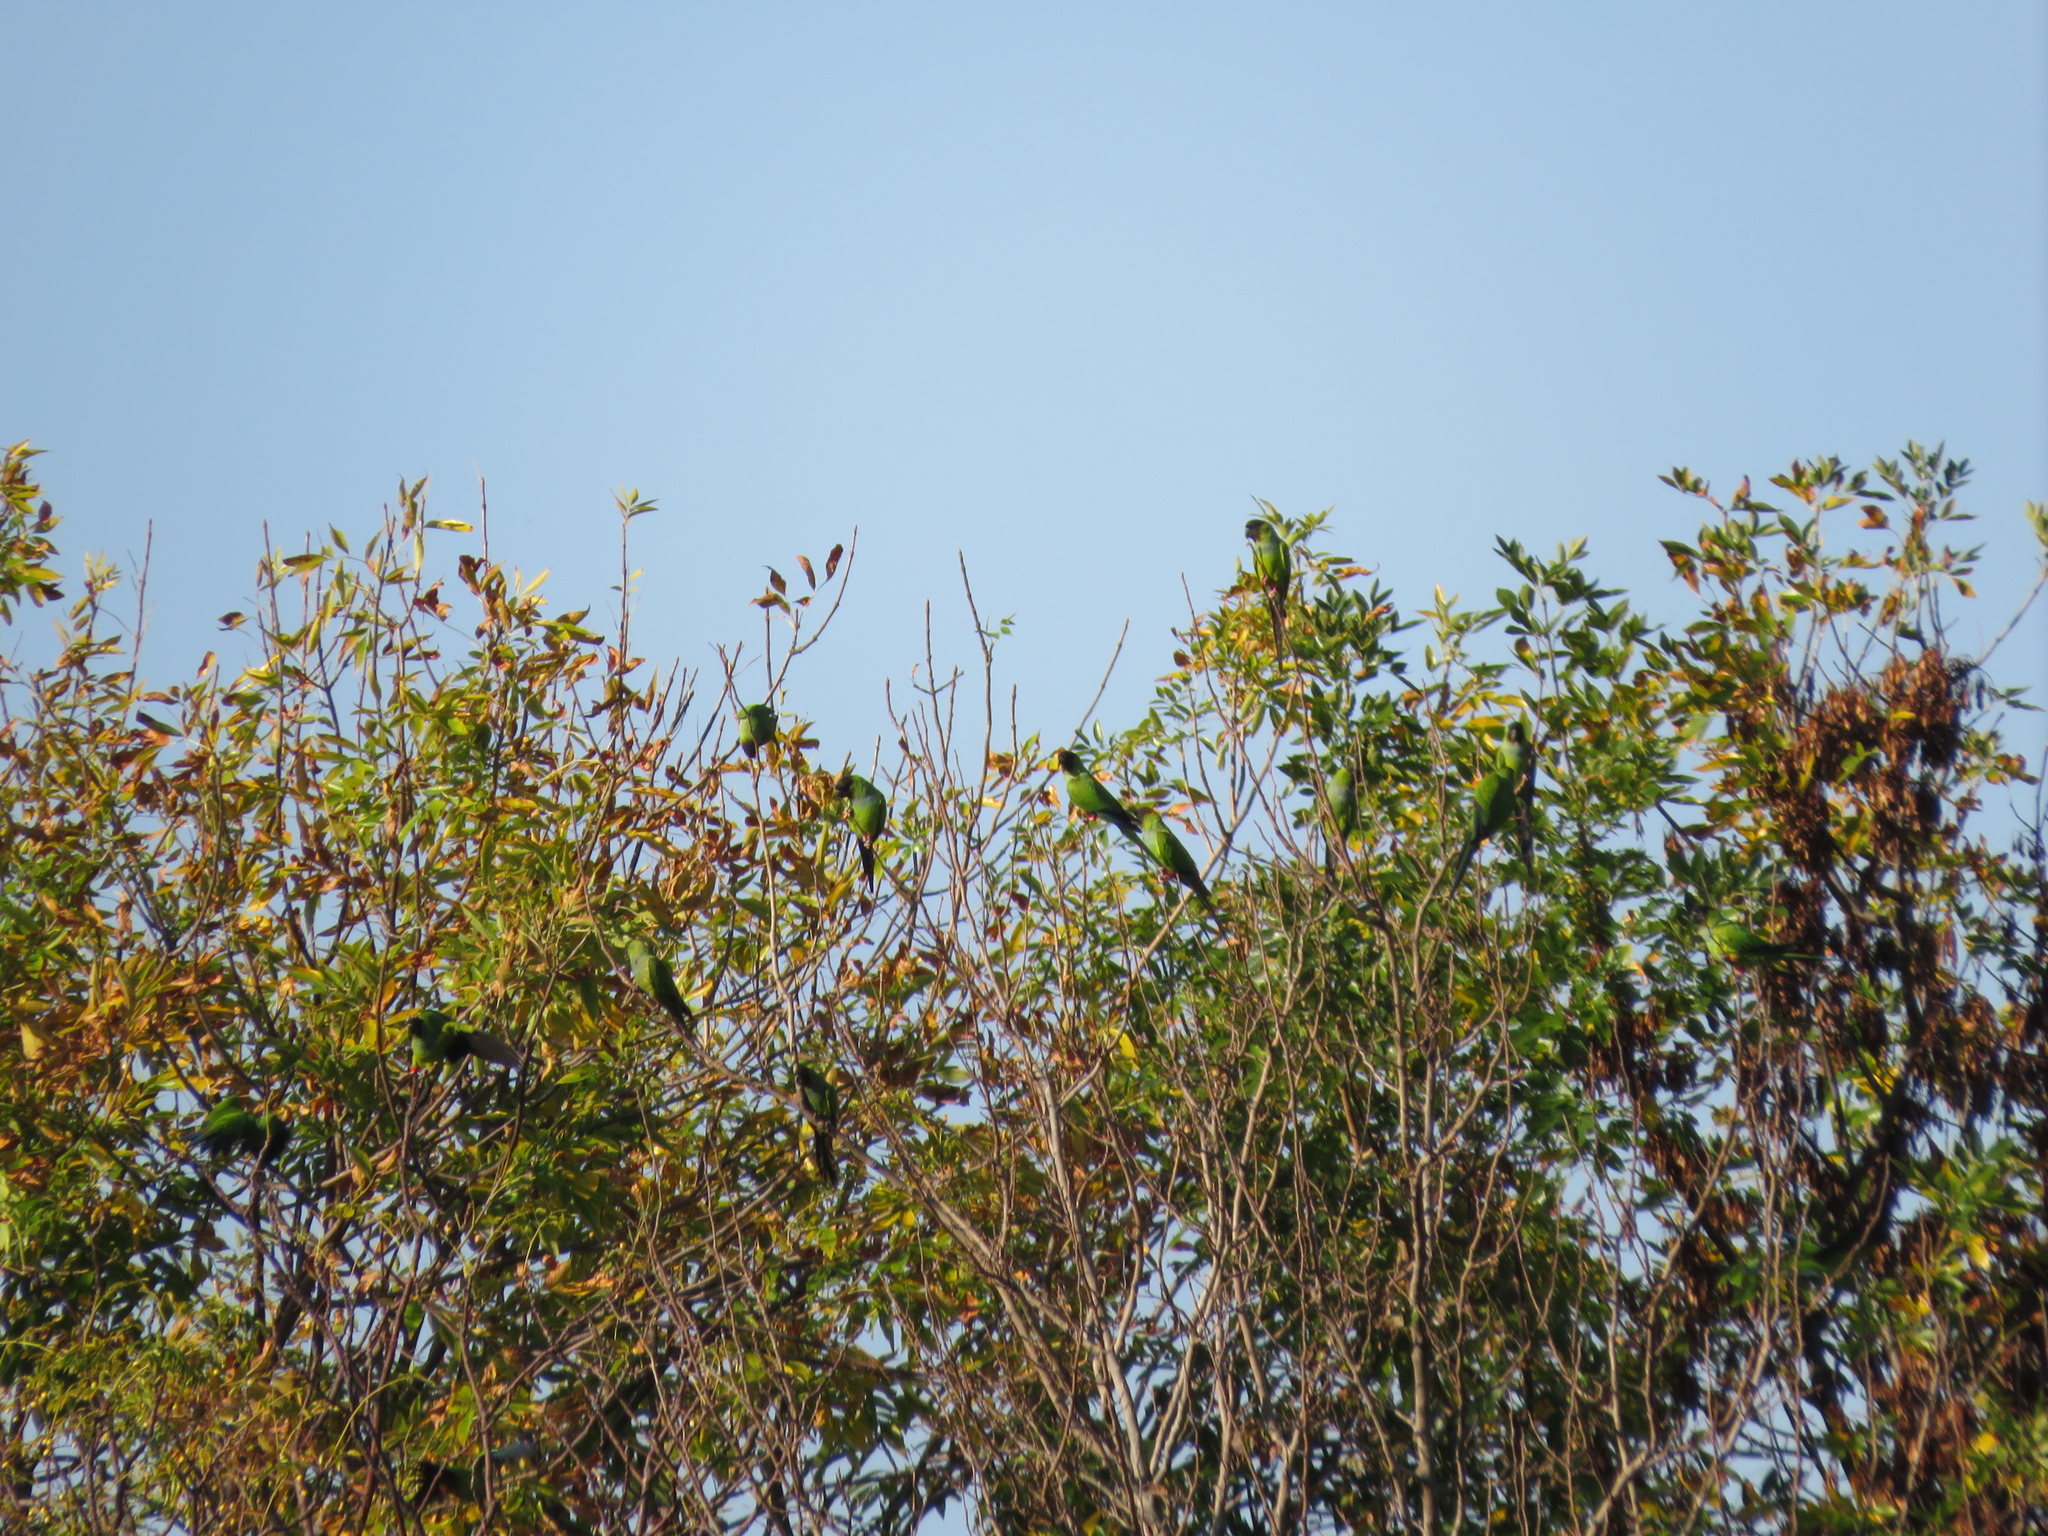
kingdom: Animalia
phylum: Chordata
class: Aves
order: Psittaciformes
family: Psittacidae
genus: Nandayus
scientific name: Nandayus nenday
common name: Nanday parakeet
